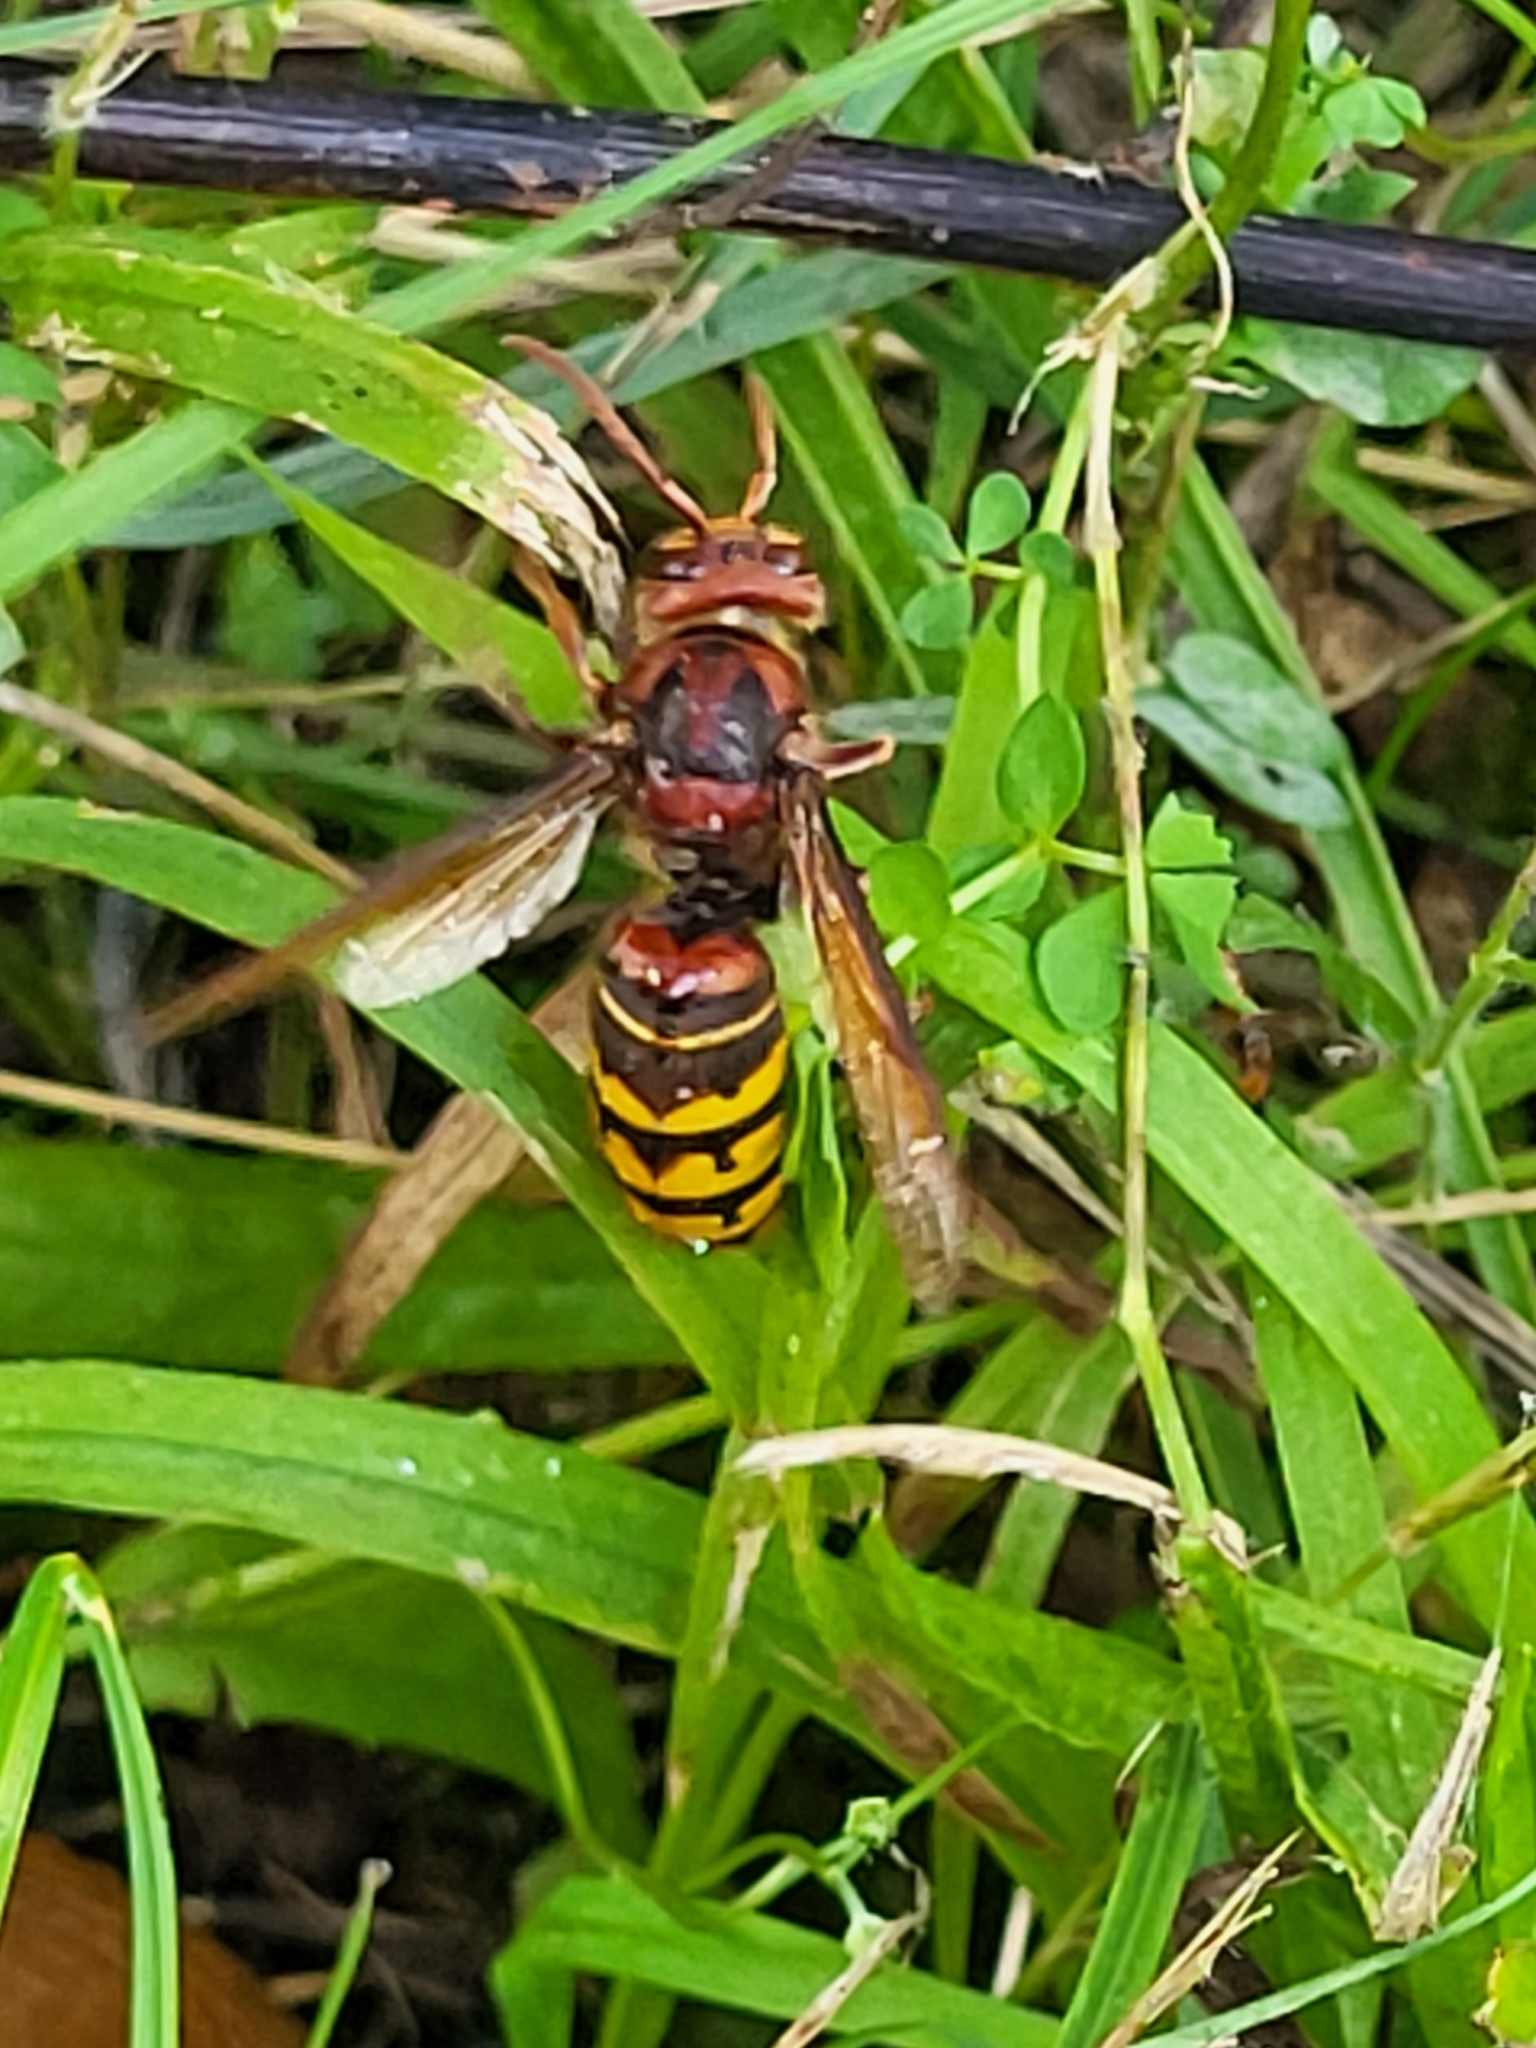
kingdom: Animalia
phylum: Arthropoda
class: Insecta
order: Hymenoptera
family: Vespidae
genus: Vespa
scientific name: Vespa crabro
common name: Hornet
